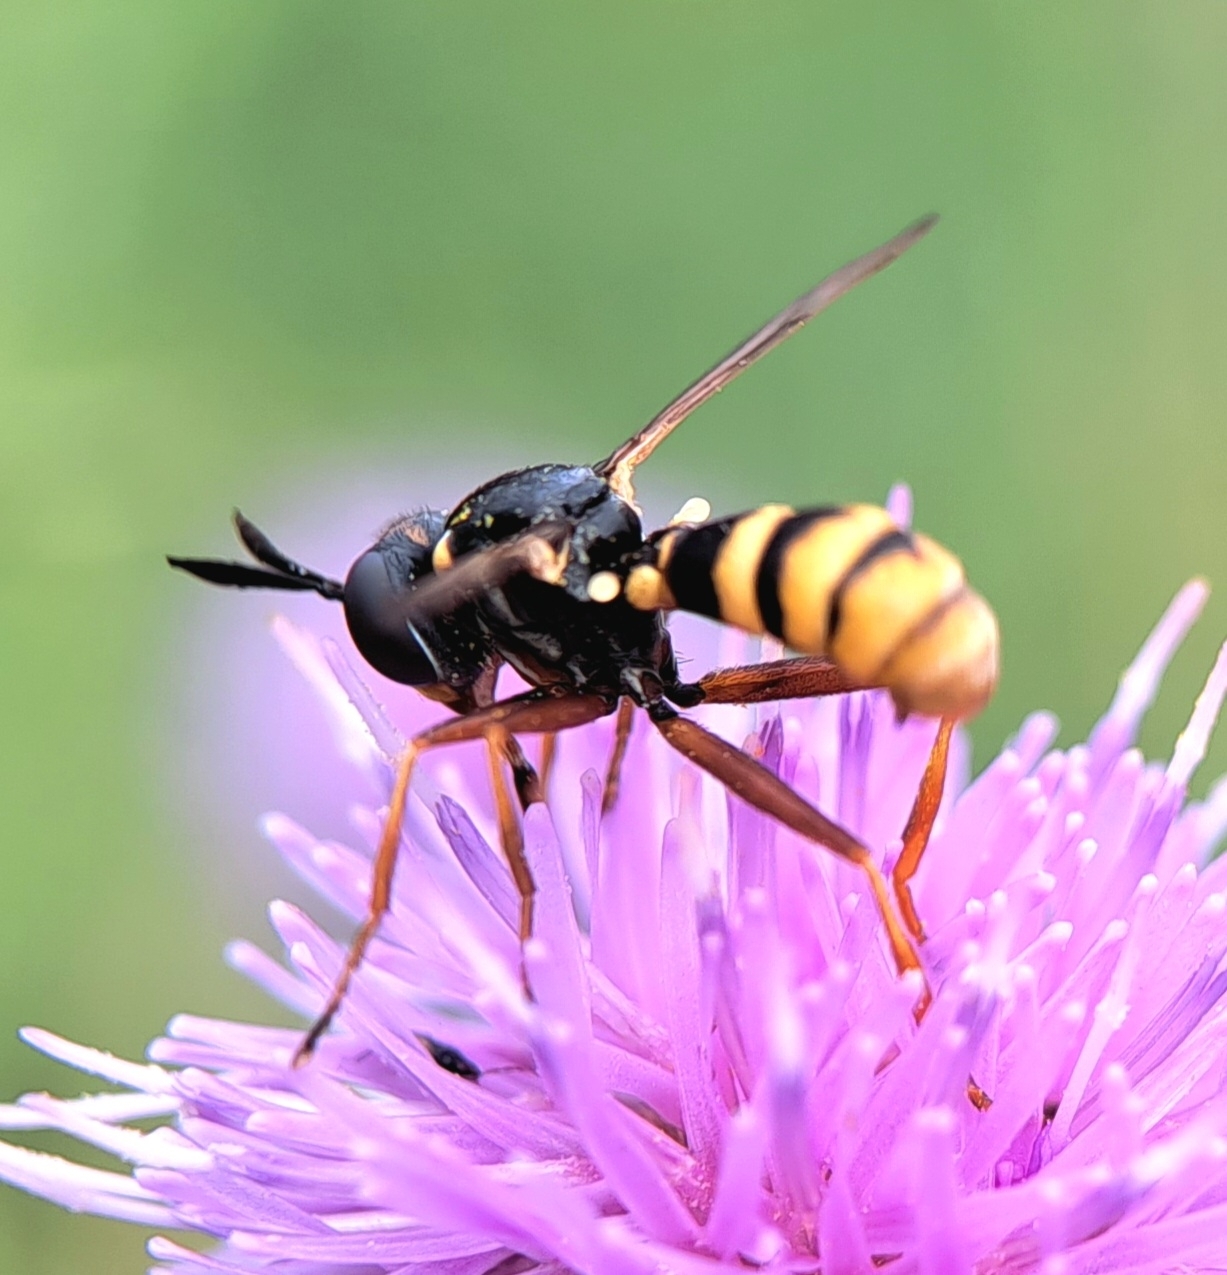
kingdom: Animalia
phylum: Arthropoda
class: Insecta
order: Diptera
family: Conopidae
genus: Conops
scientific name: Conops quadrifasciatus
